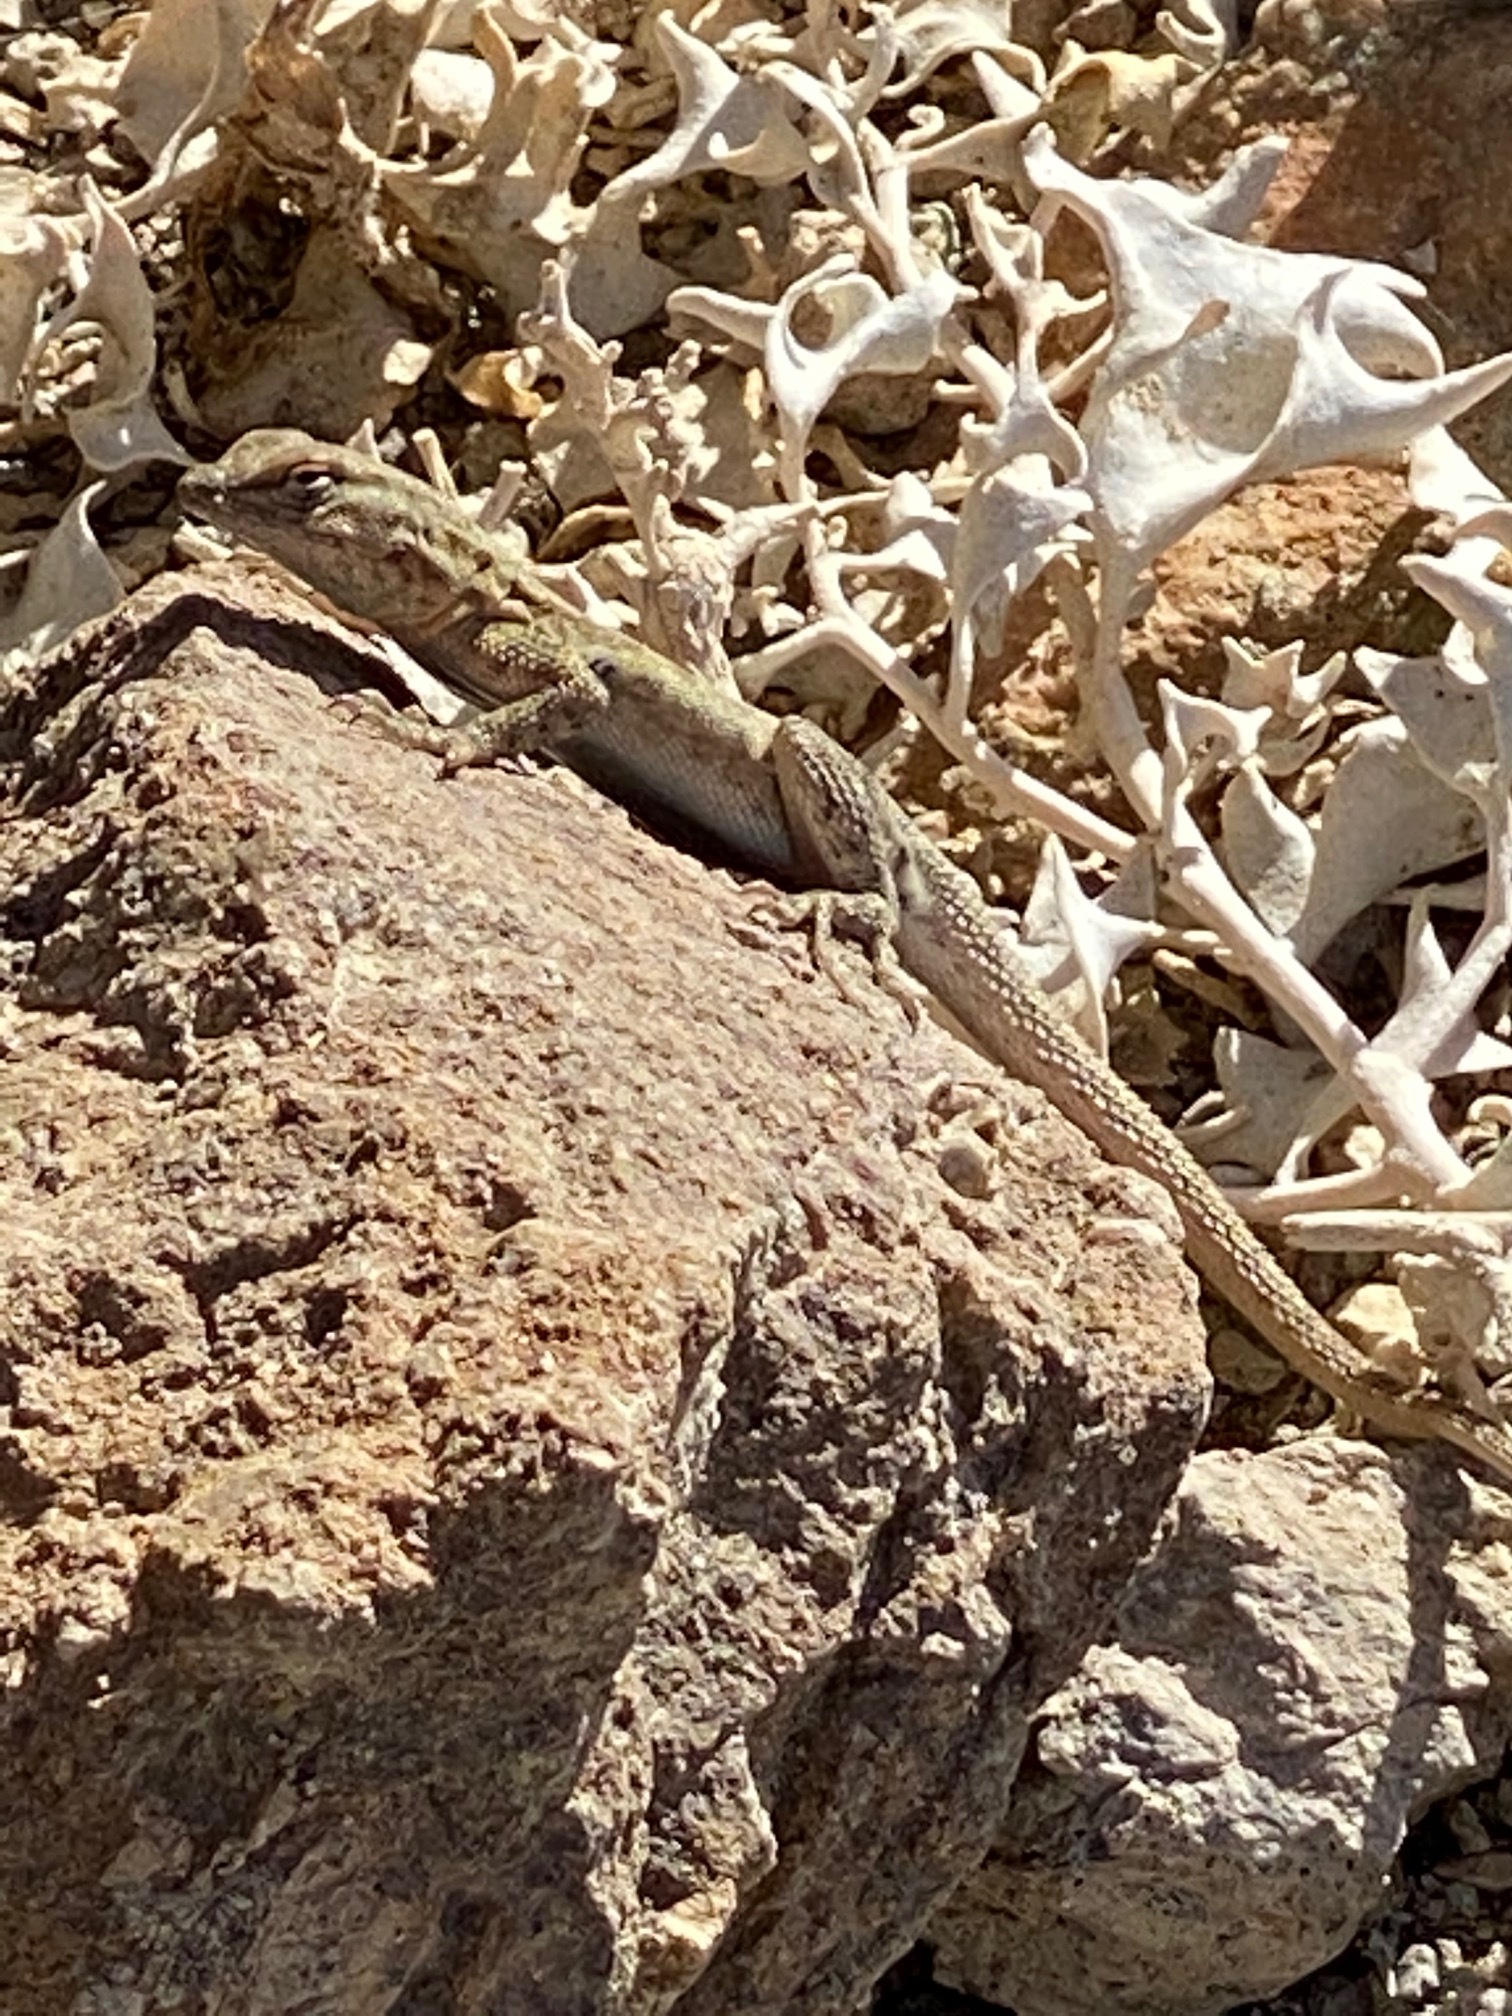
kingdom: Animalia
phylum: Chordata
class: Squamata
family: Phrynosomatidae
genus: Uta
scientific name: Uta stansburiana
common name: Side-blotched lizard
